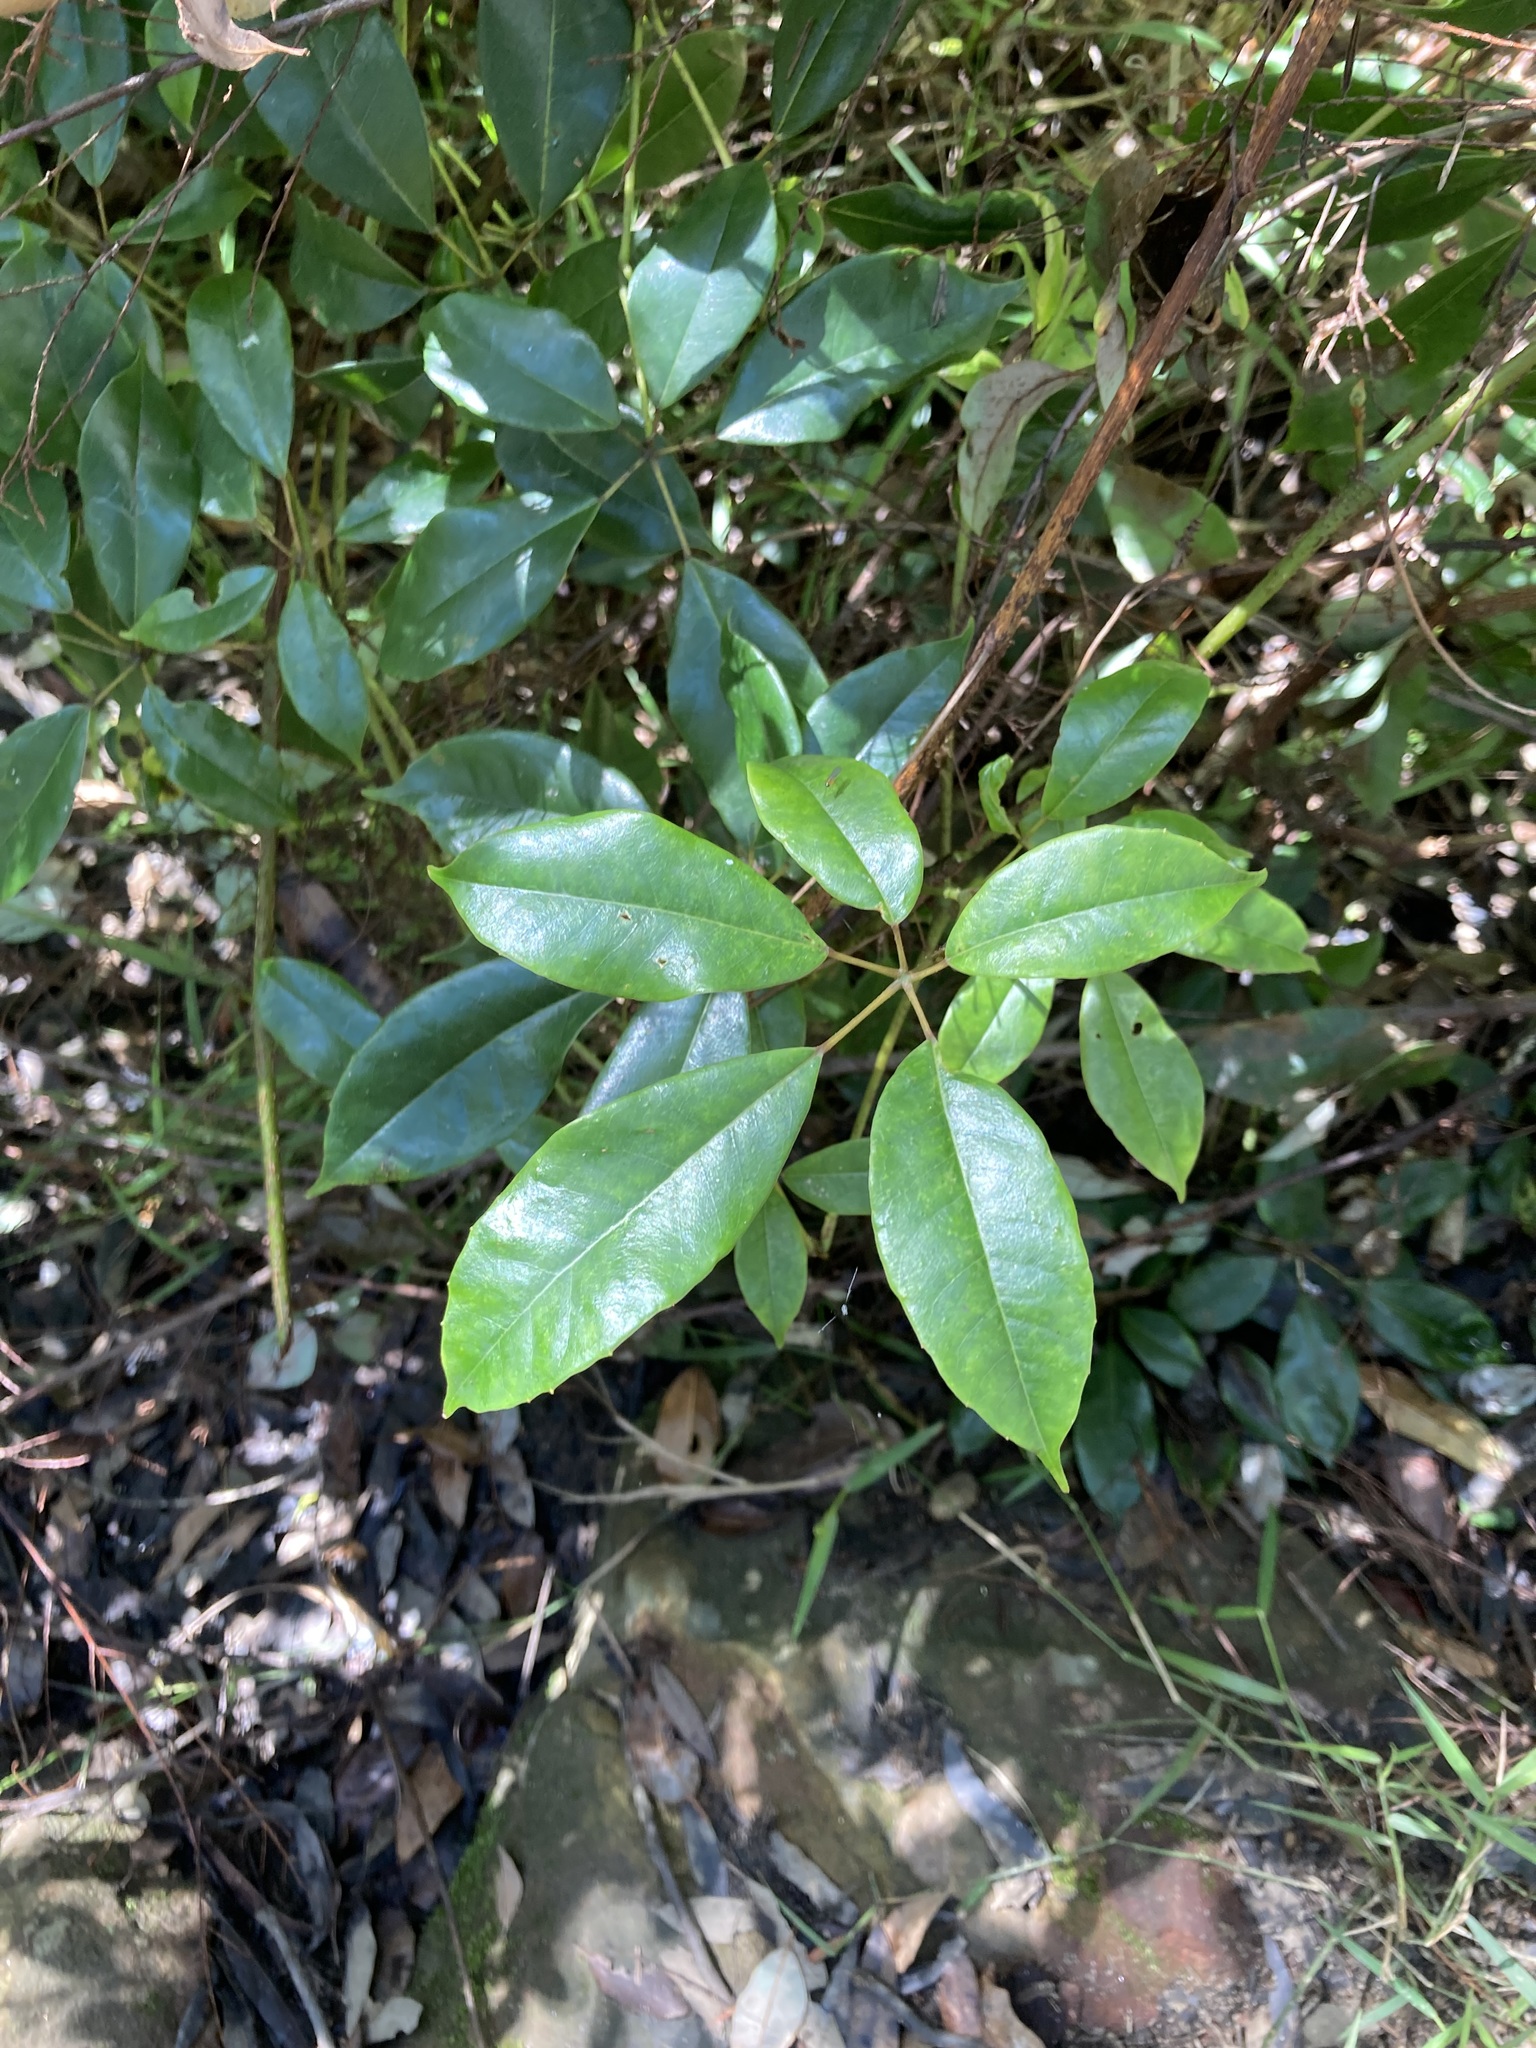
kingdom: Plantae
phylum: Tracheophyta
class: Magnoliopsida
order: Vitales
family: Vitaceae
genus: Nothocissus
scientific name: Nothocissus hypoglauca
